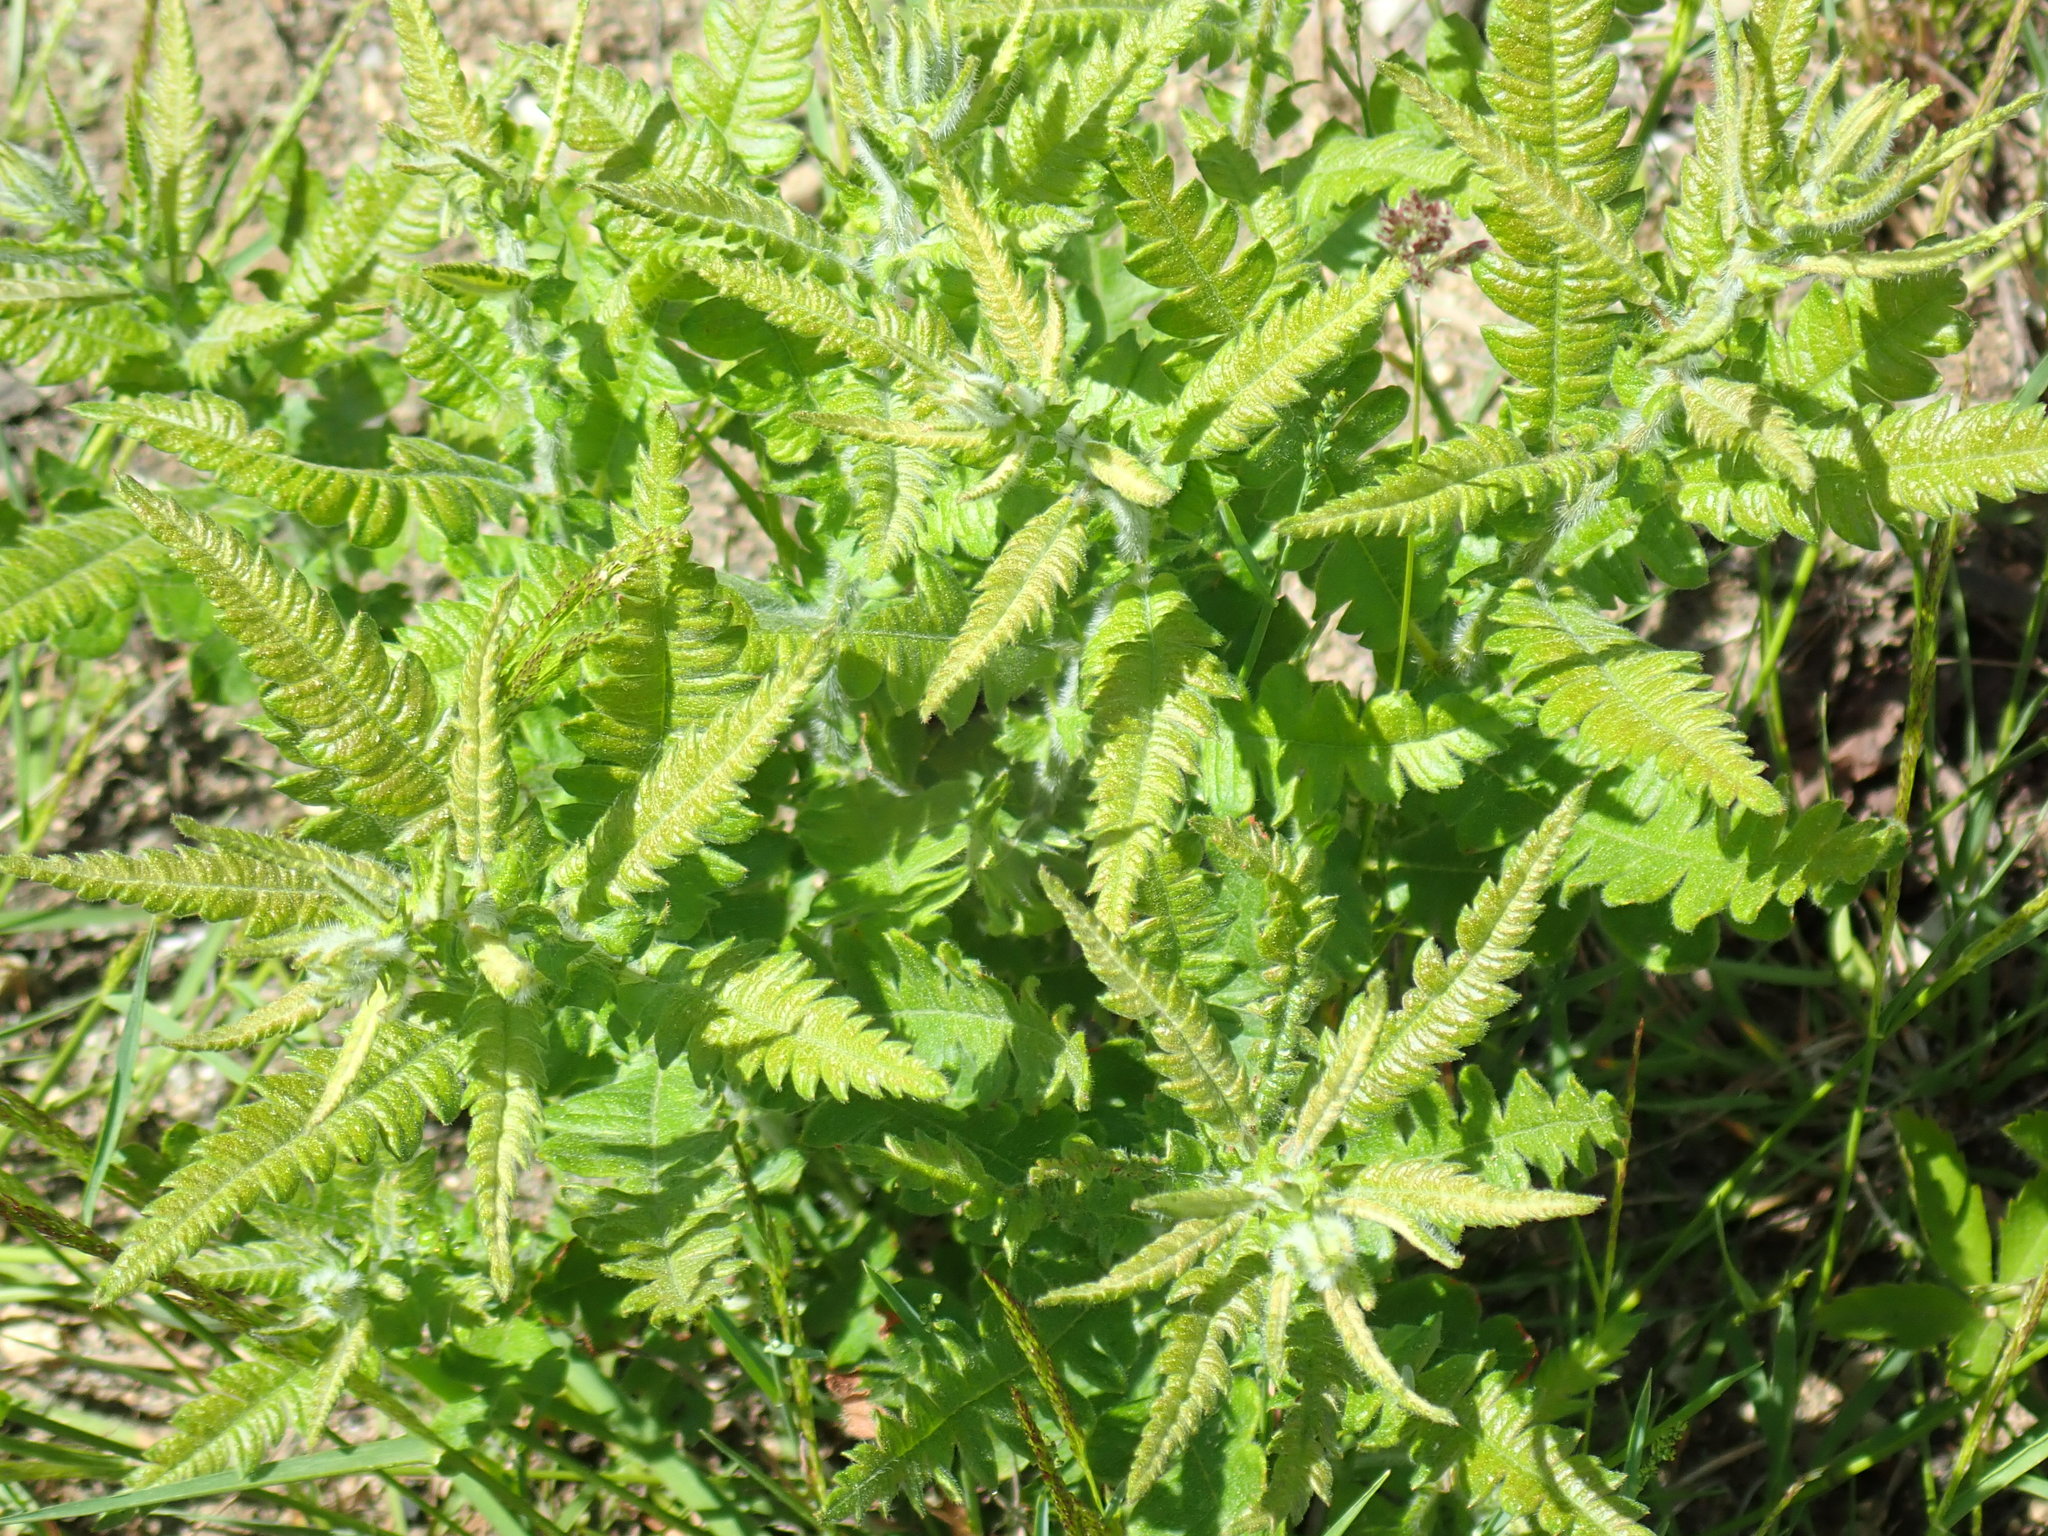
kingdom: Plantae
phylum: Tracheophyta
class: Magnoliopsida
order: Fagales
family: Myricaceae
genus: Comptonia
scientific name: Comptonia peregrina
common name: Sweet-fern
